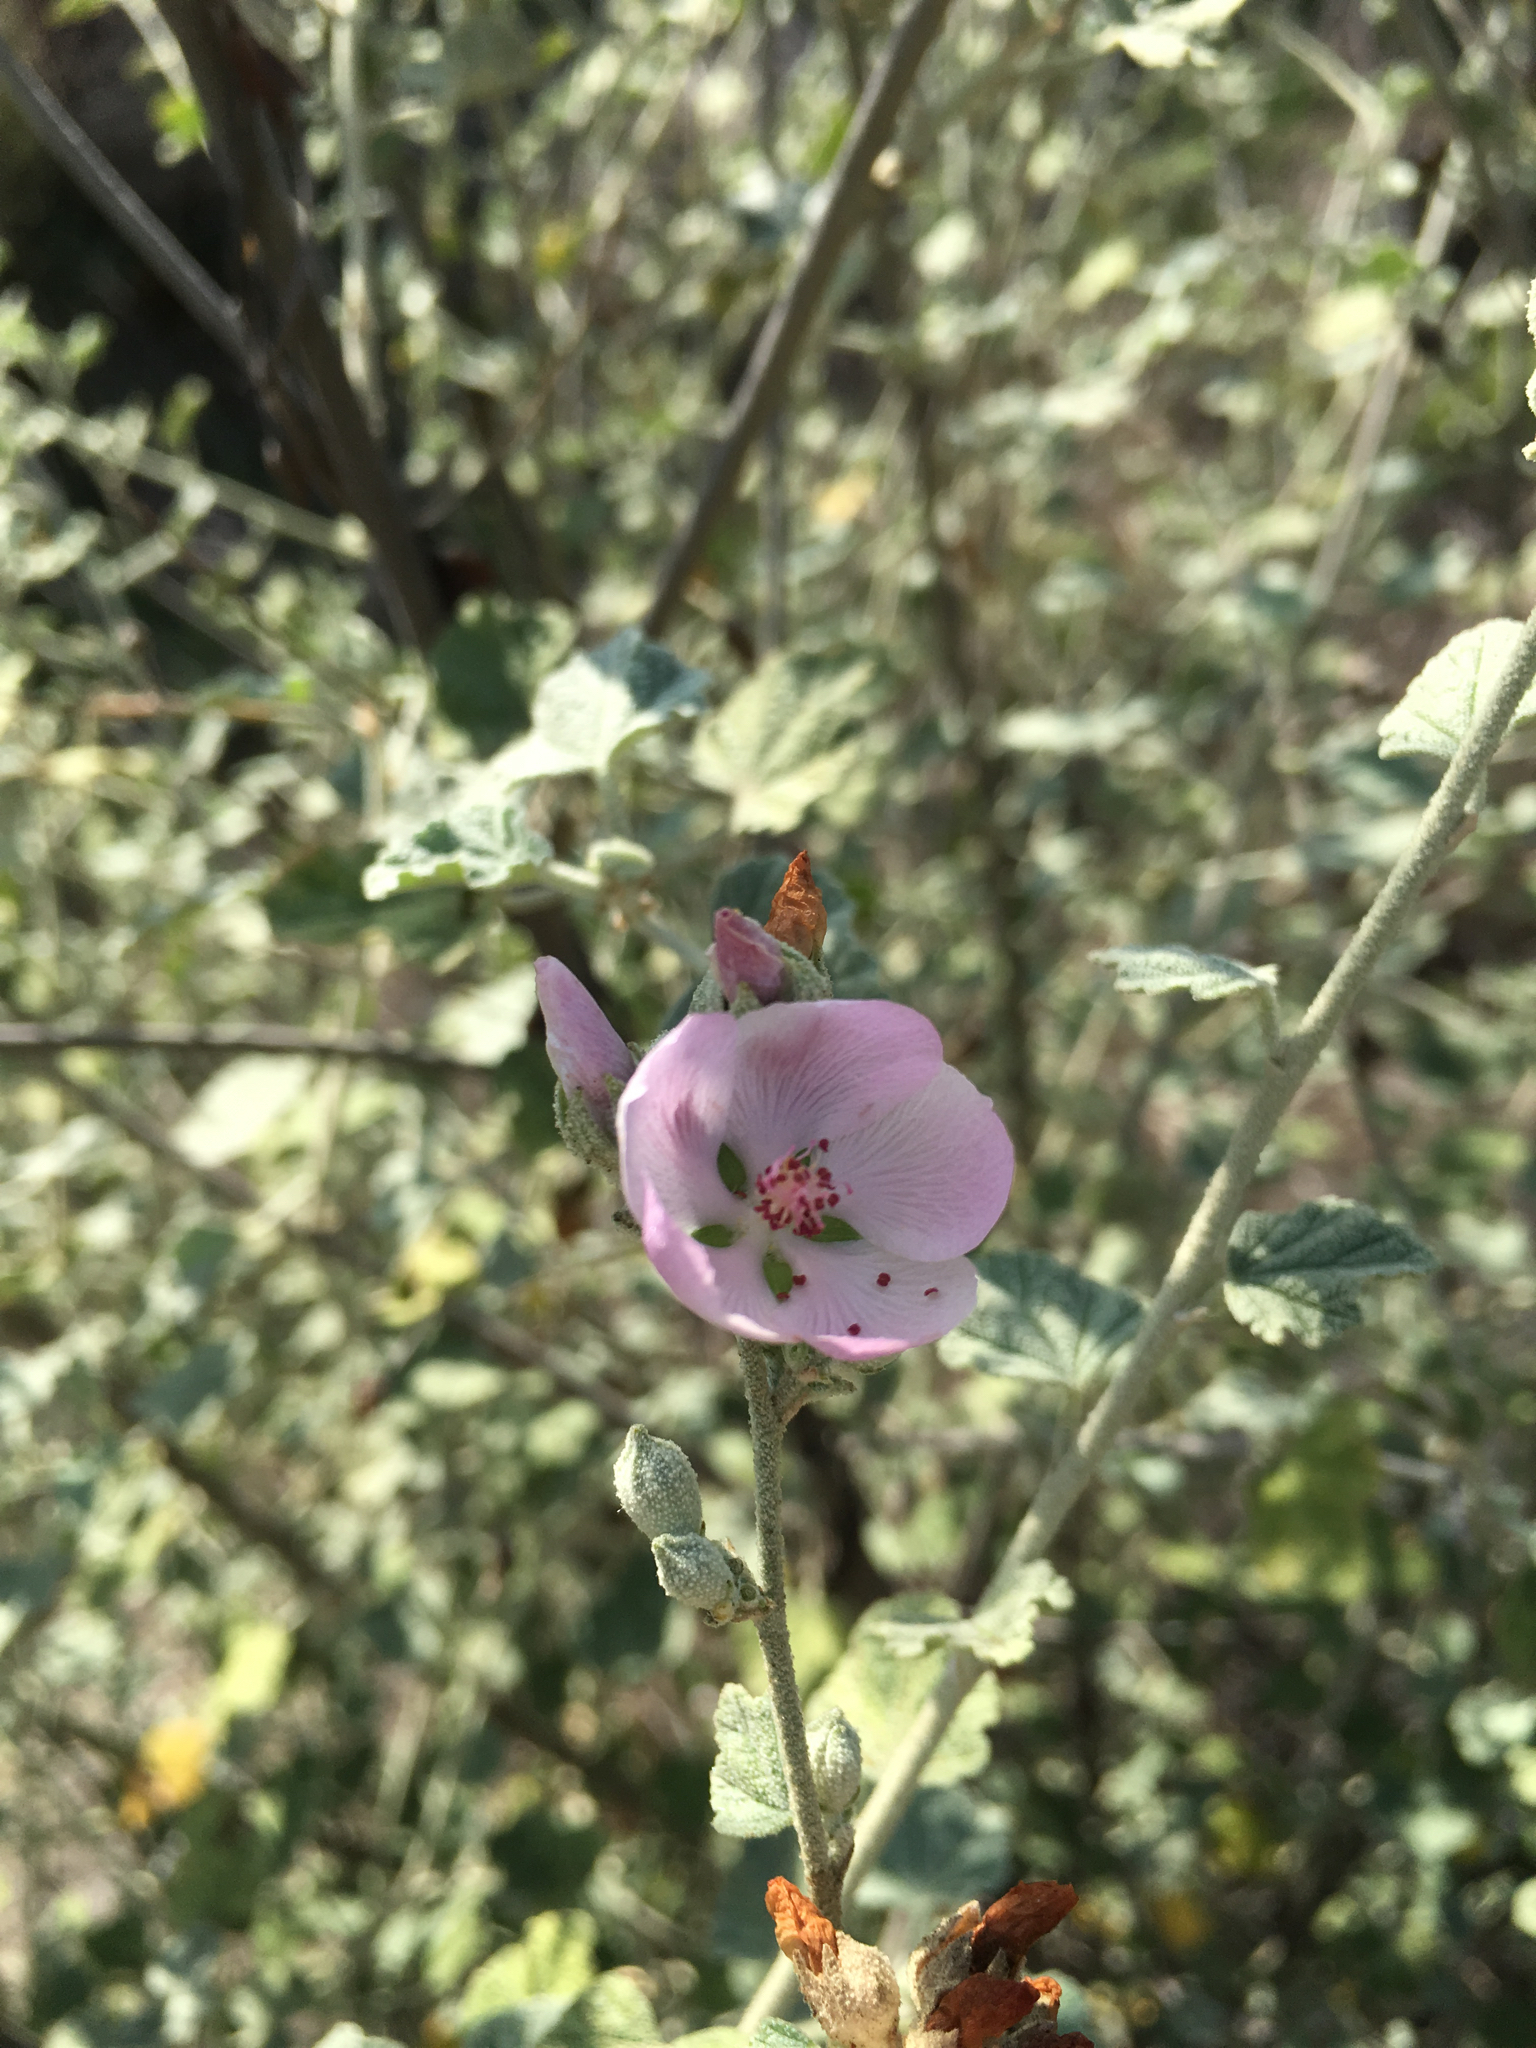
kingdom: Plantae
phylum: Tracheophyta
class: Magnoliopsida
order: Malvales
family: Malvaceae
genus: Malacothamnus
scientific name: Malacothamnus fasciculatus
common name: Sant cruz island bush-mallow
